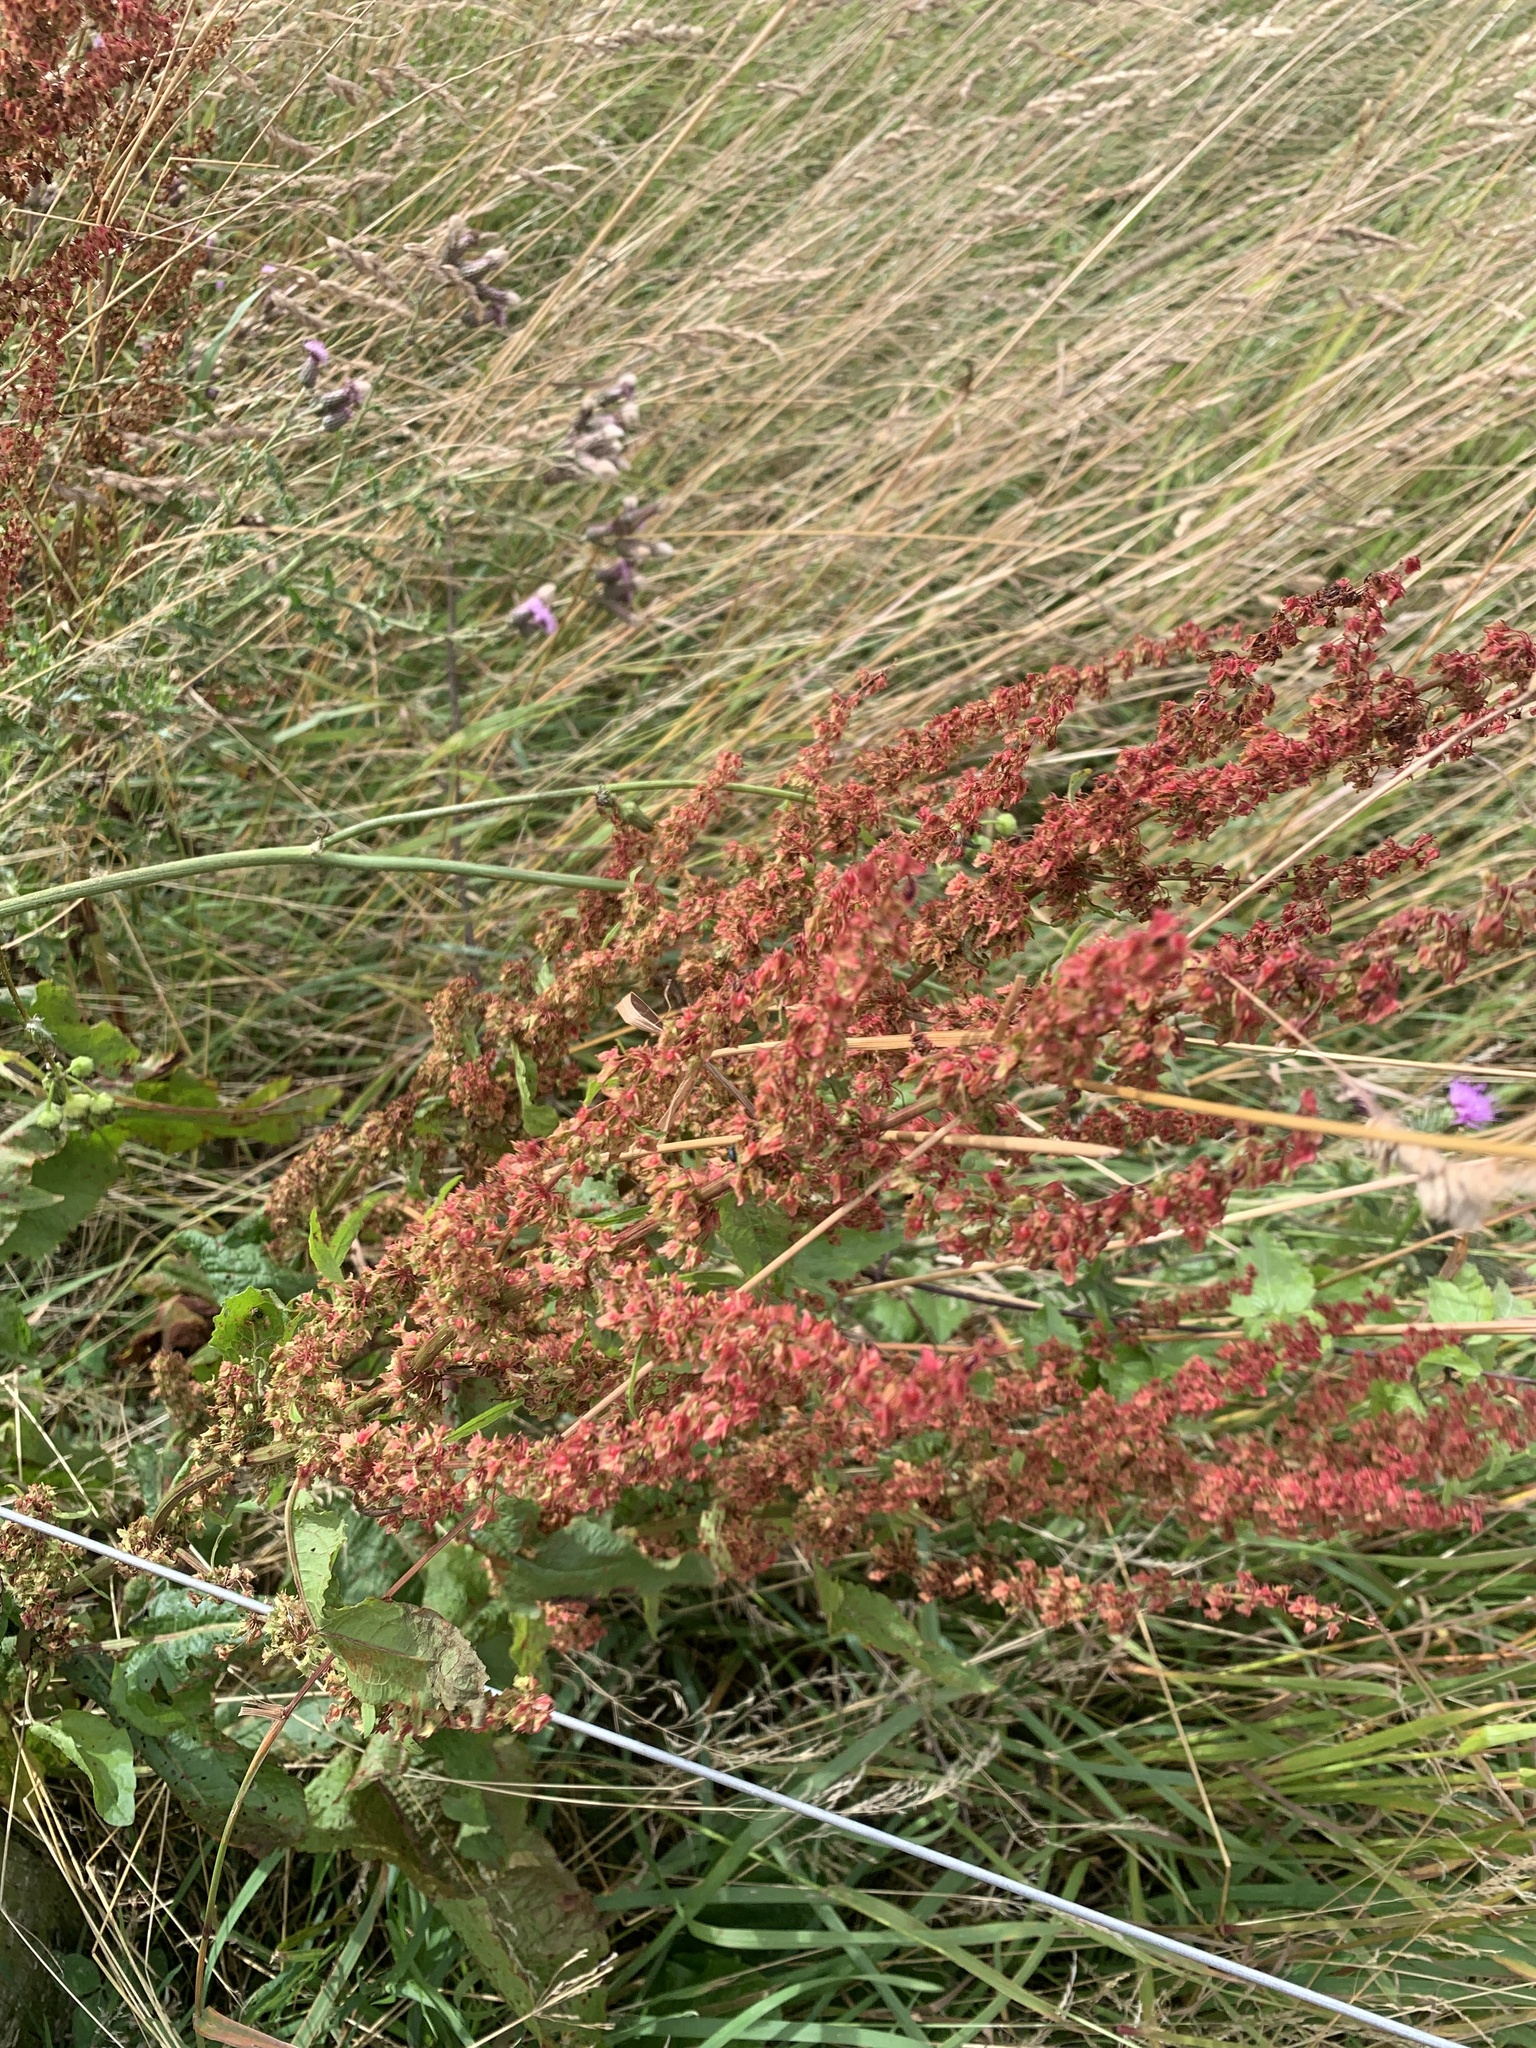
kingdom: Plantae
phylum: Tracheophyta
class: Magnoliopsida
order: Caryophyllales
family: Polygonaceae
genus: Rumex
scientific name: Rumex sanguineus
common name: Wood dock
